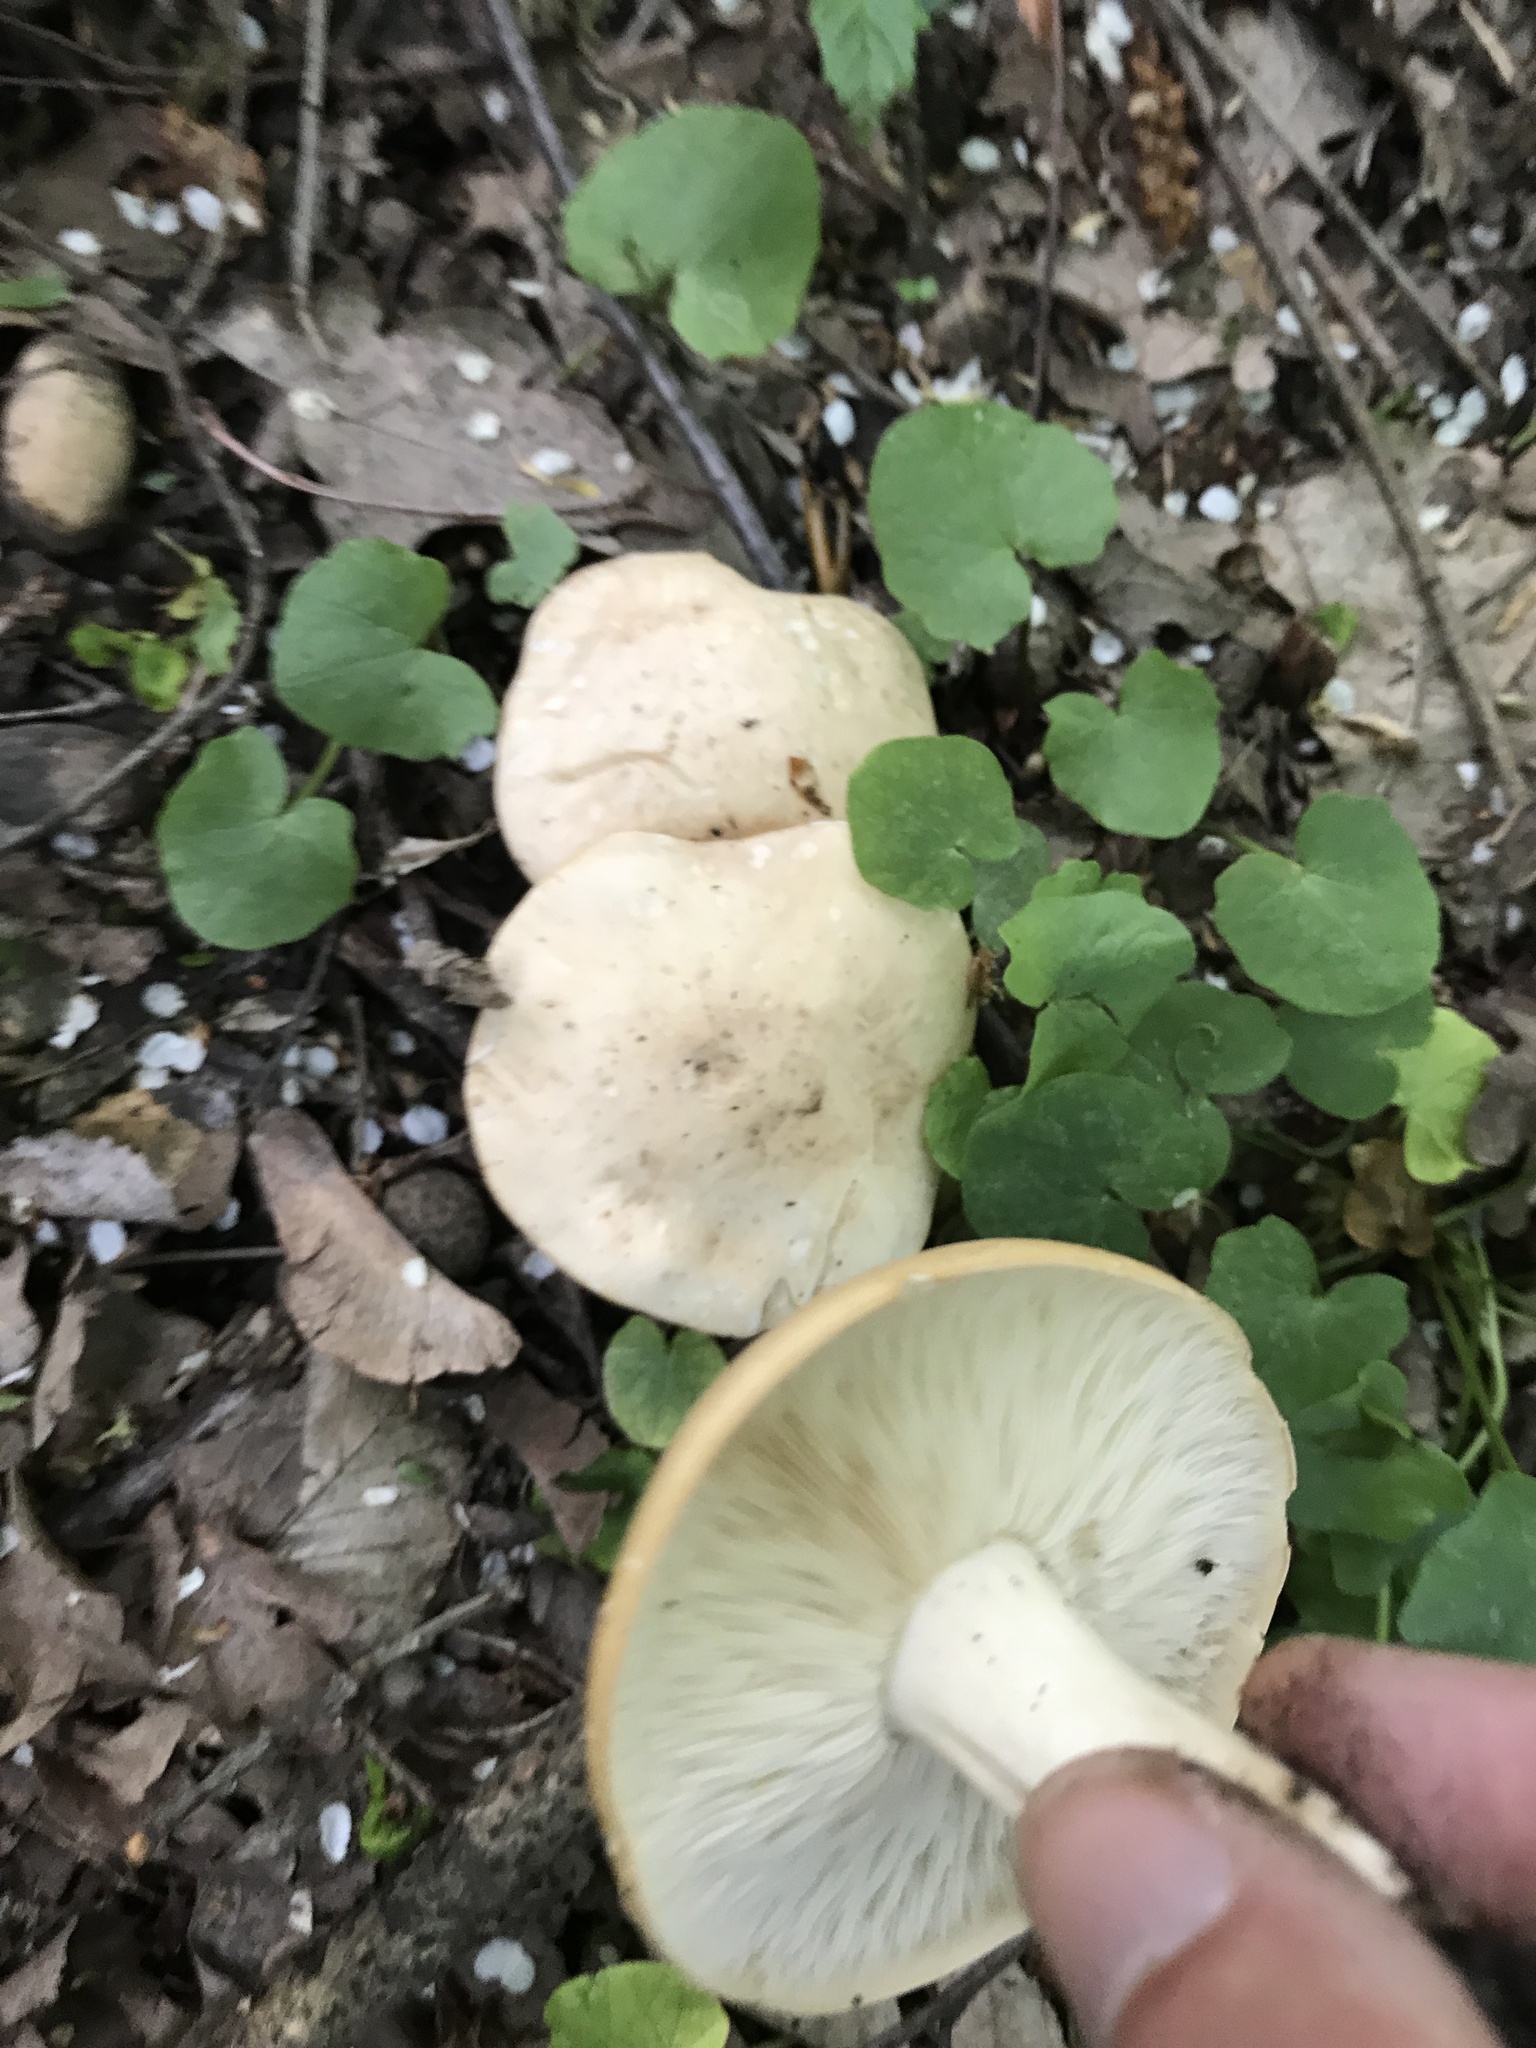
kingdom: Fungi
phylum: Basidiomycota
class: Agaricomycetes
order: Agaricales
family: Lyophyllaceae
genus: Calocybe
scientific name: Calocybe gambosa
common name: St. george's mushroom
